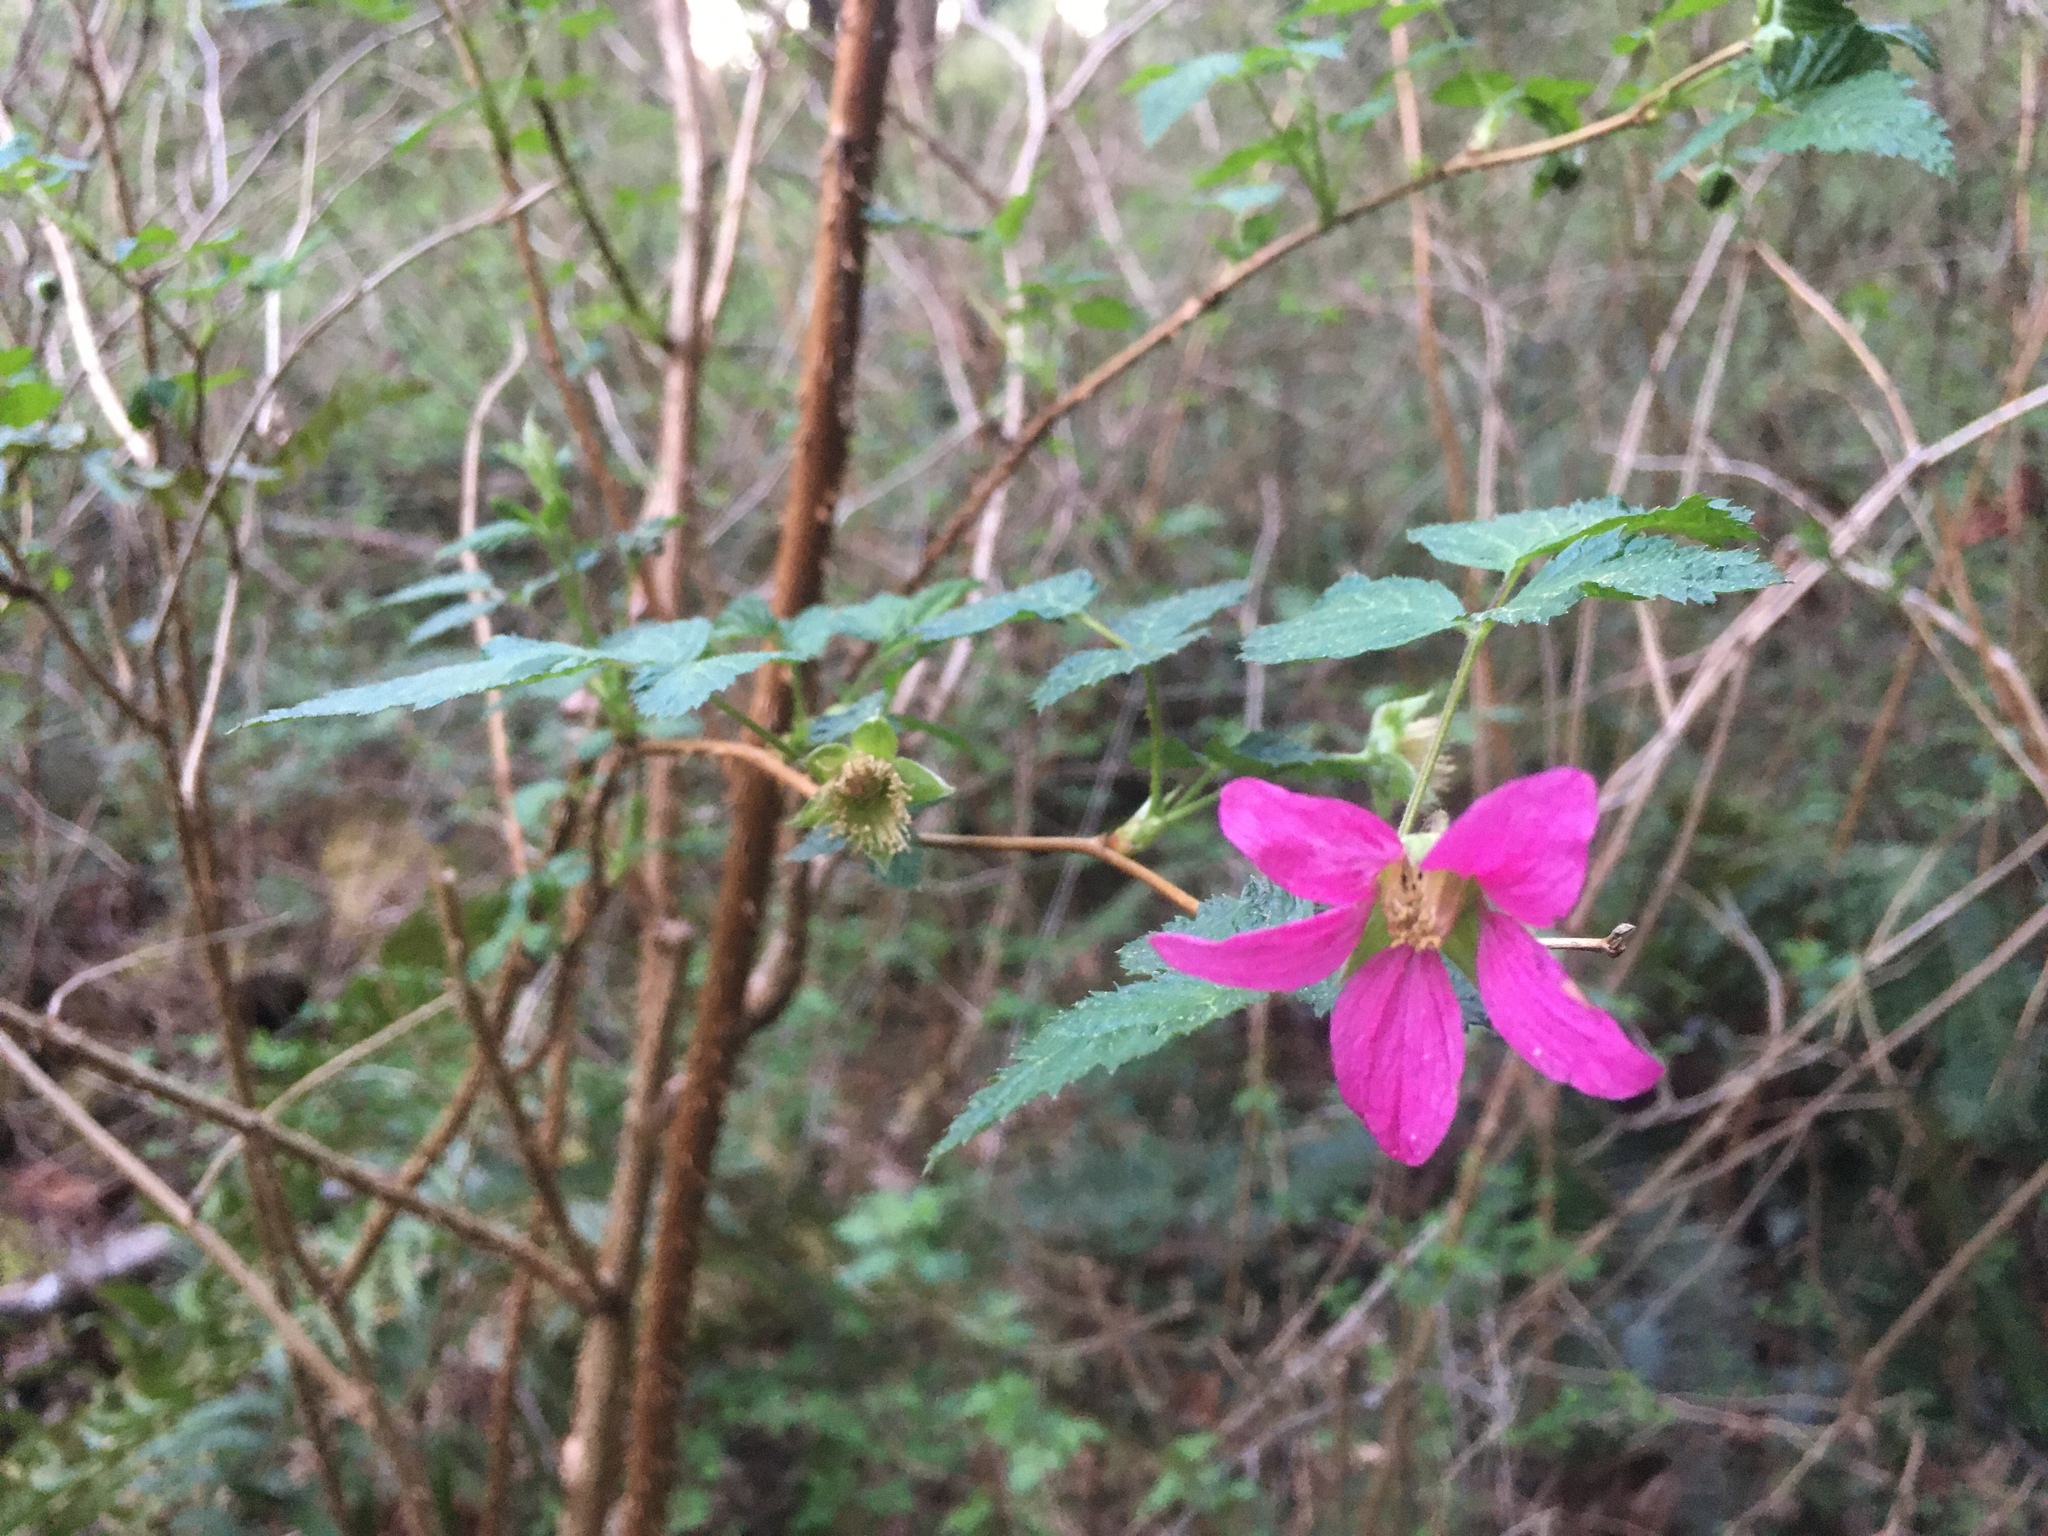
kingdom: Plantae
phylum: Tracheophyta
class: Magnoliopsida
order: Rosales
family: Rosaceae
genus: Rubus
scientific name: Rubus spectabilis
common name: Salmonberry
